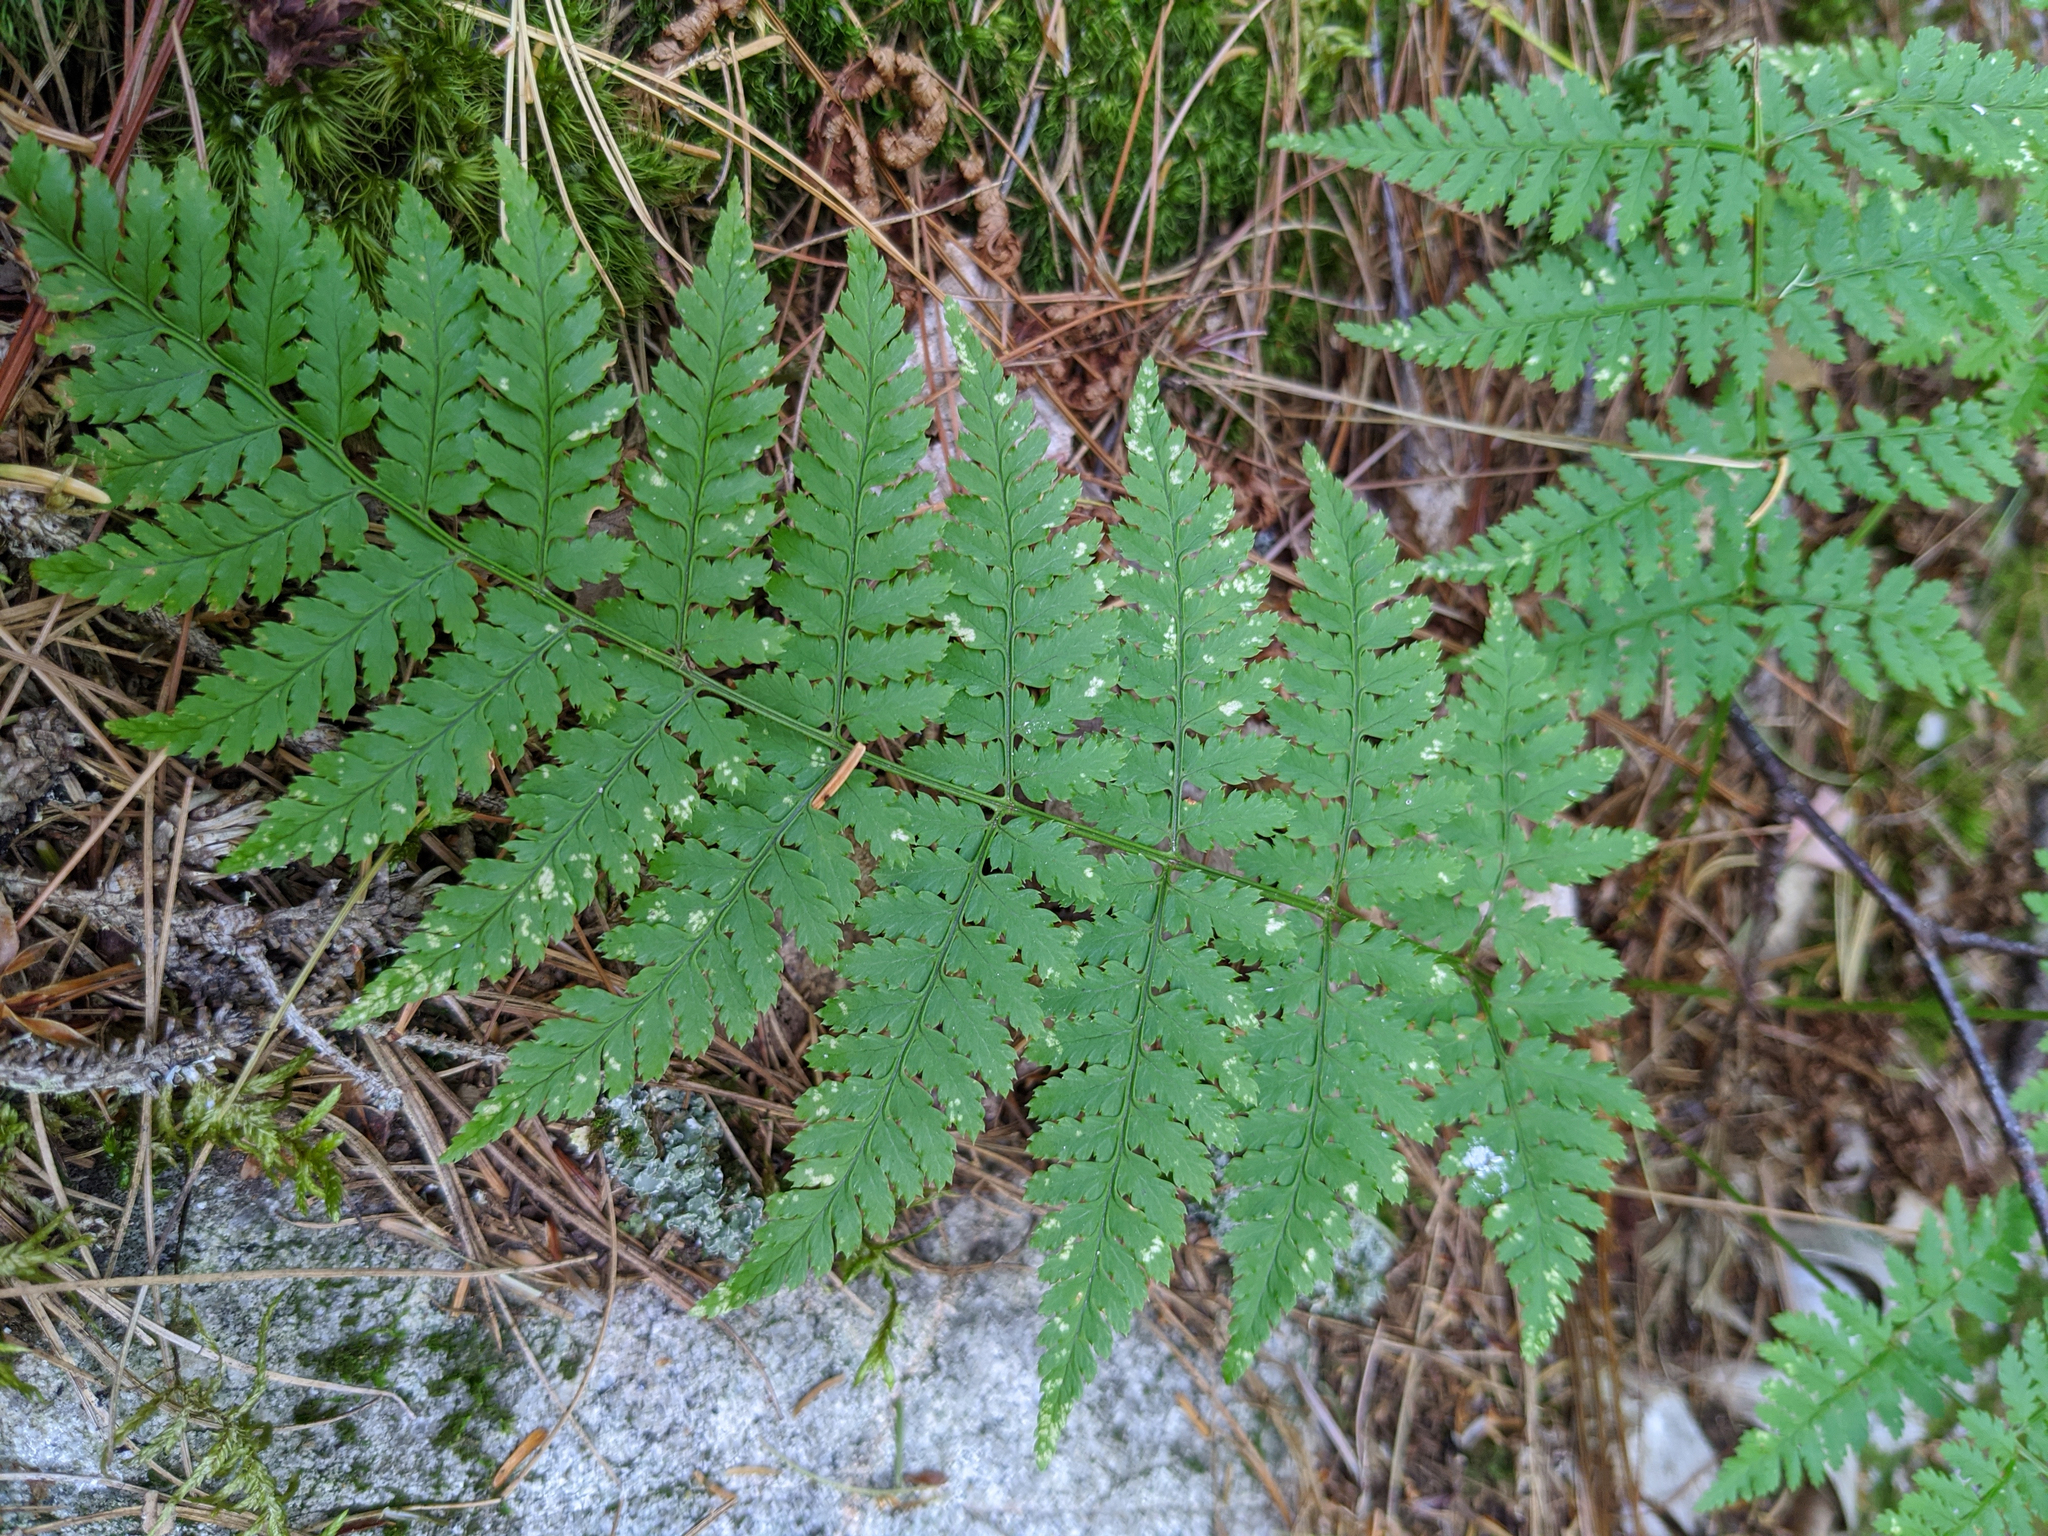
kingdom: Plantae
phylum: Tracheophyta
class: Polypodiopsida
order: Polypodiales
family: Dryopteridaceae
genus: Dryopteris
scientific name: Dryopteris intermedia
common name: Evergreen wood fern
